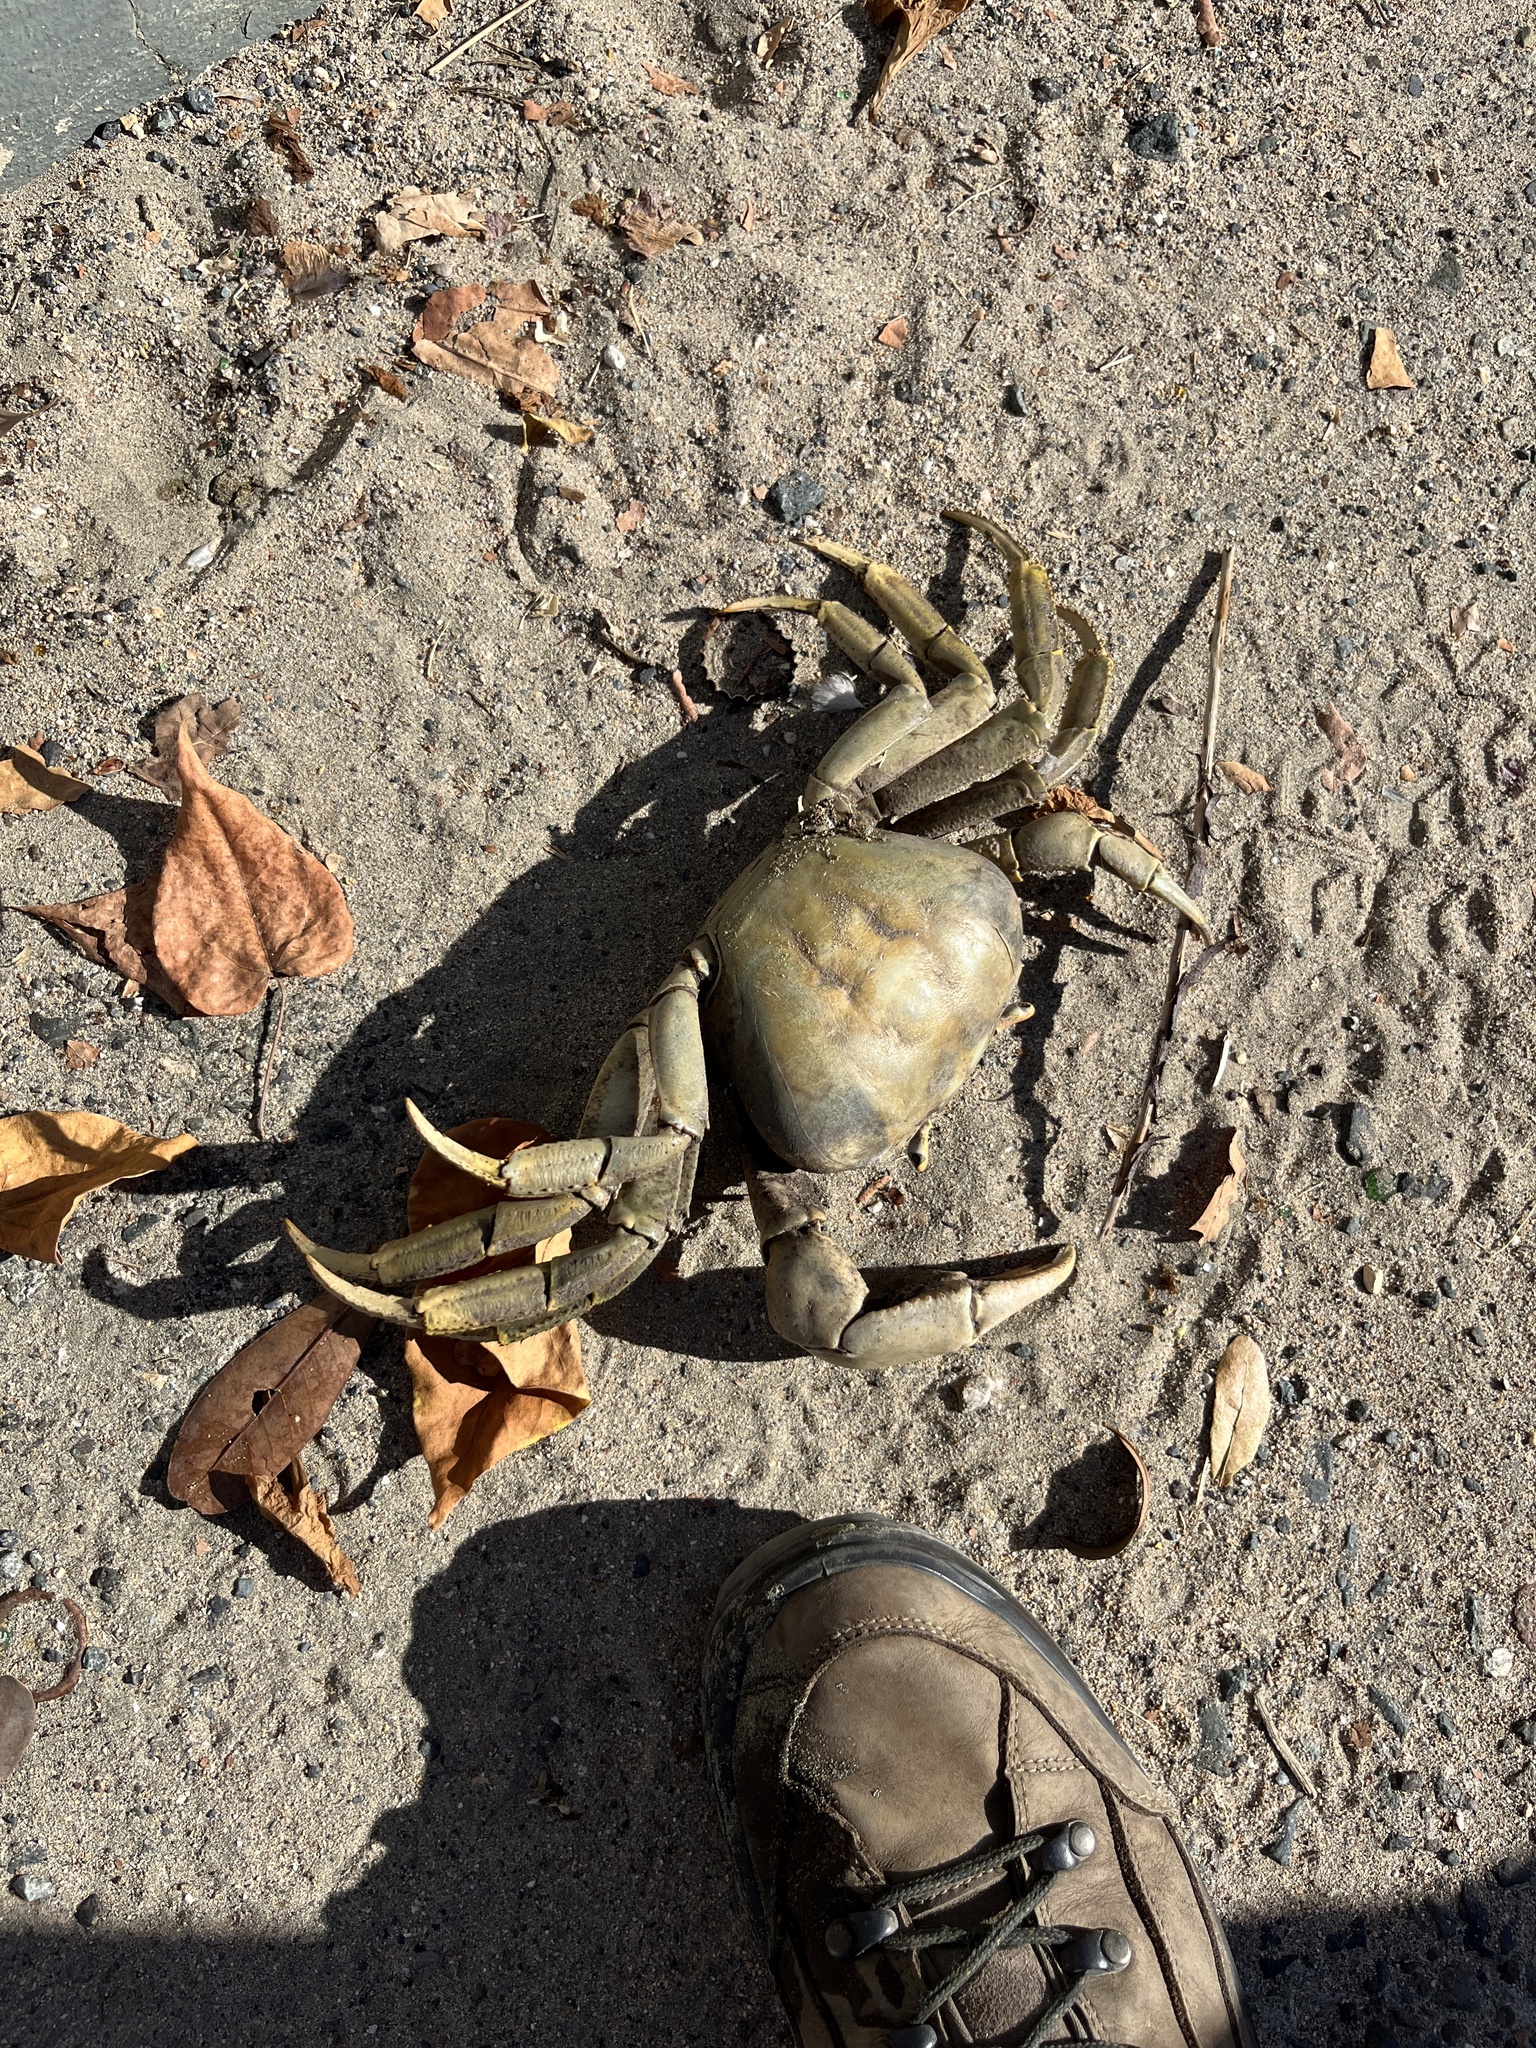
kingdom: Animalia
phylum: Arthropoda
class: Malacostraca
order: Decapoda
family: Gecarcinidae
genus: Cardisoma
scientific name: Cardisoma guanhumi
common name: Great land crab
